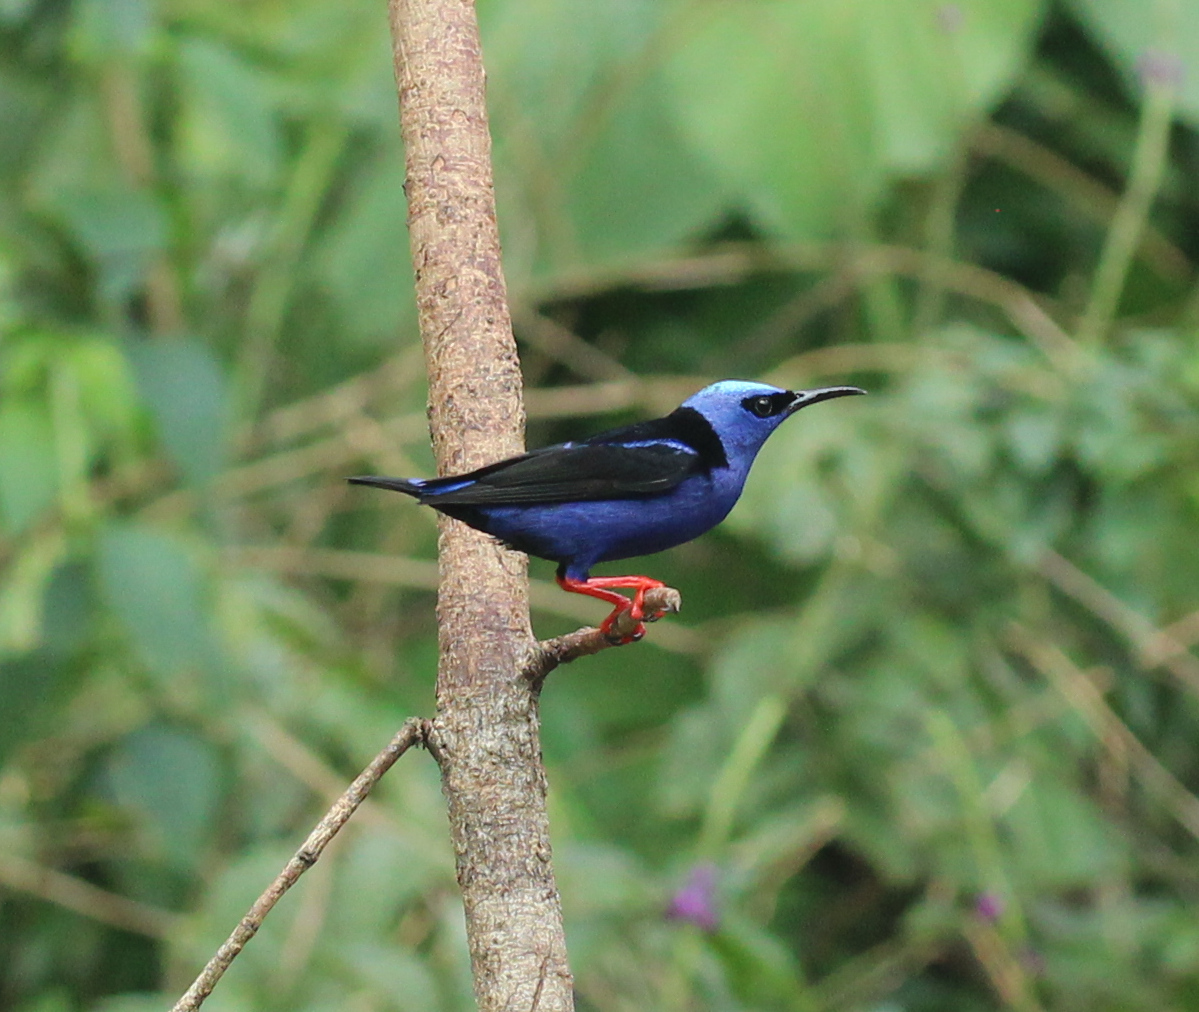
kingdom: Animalia
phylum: Chordata
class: Aves
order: Passeriformes
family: Thraupidae
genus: Cyanerpes
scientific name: Cyanerpes cyaneus
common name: Red-legged honeycreeper
